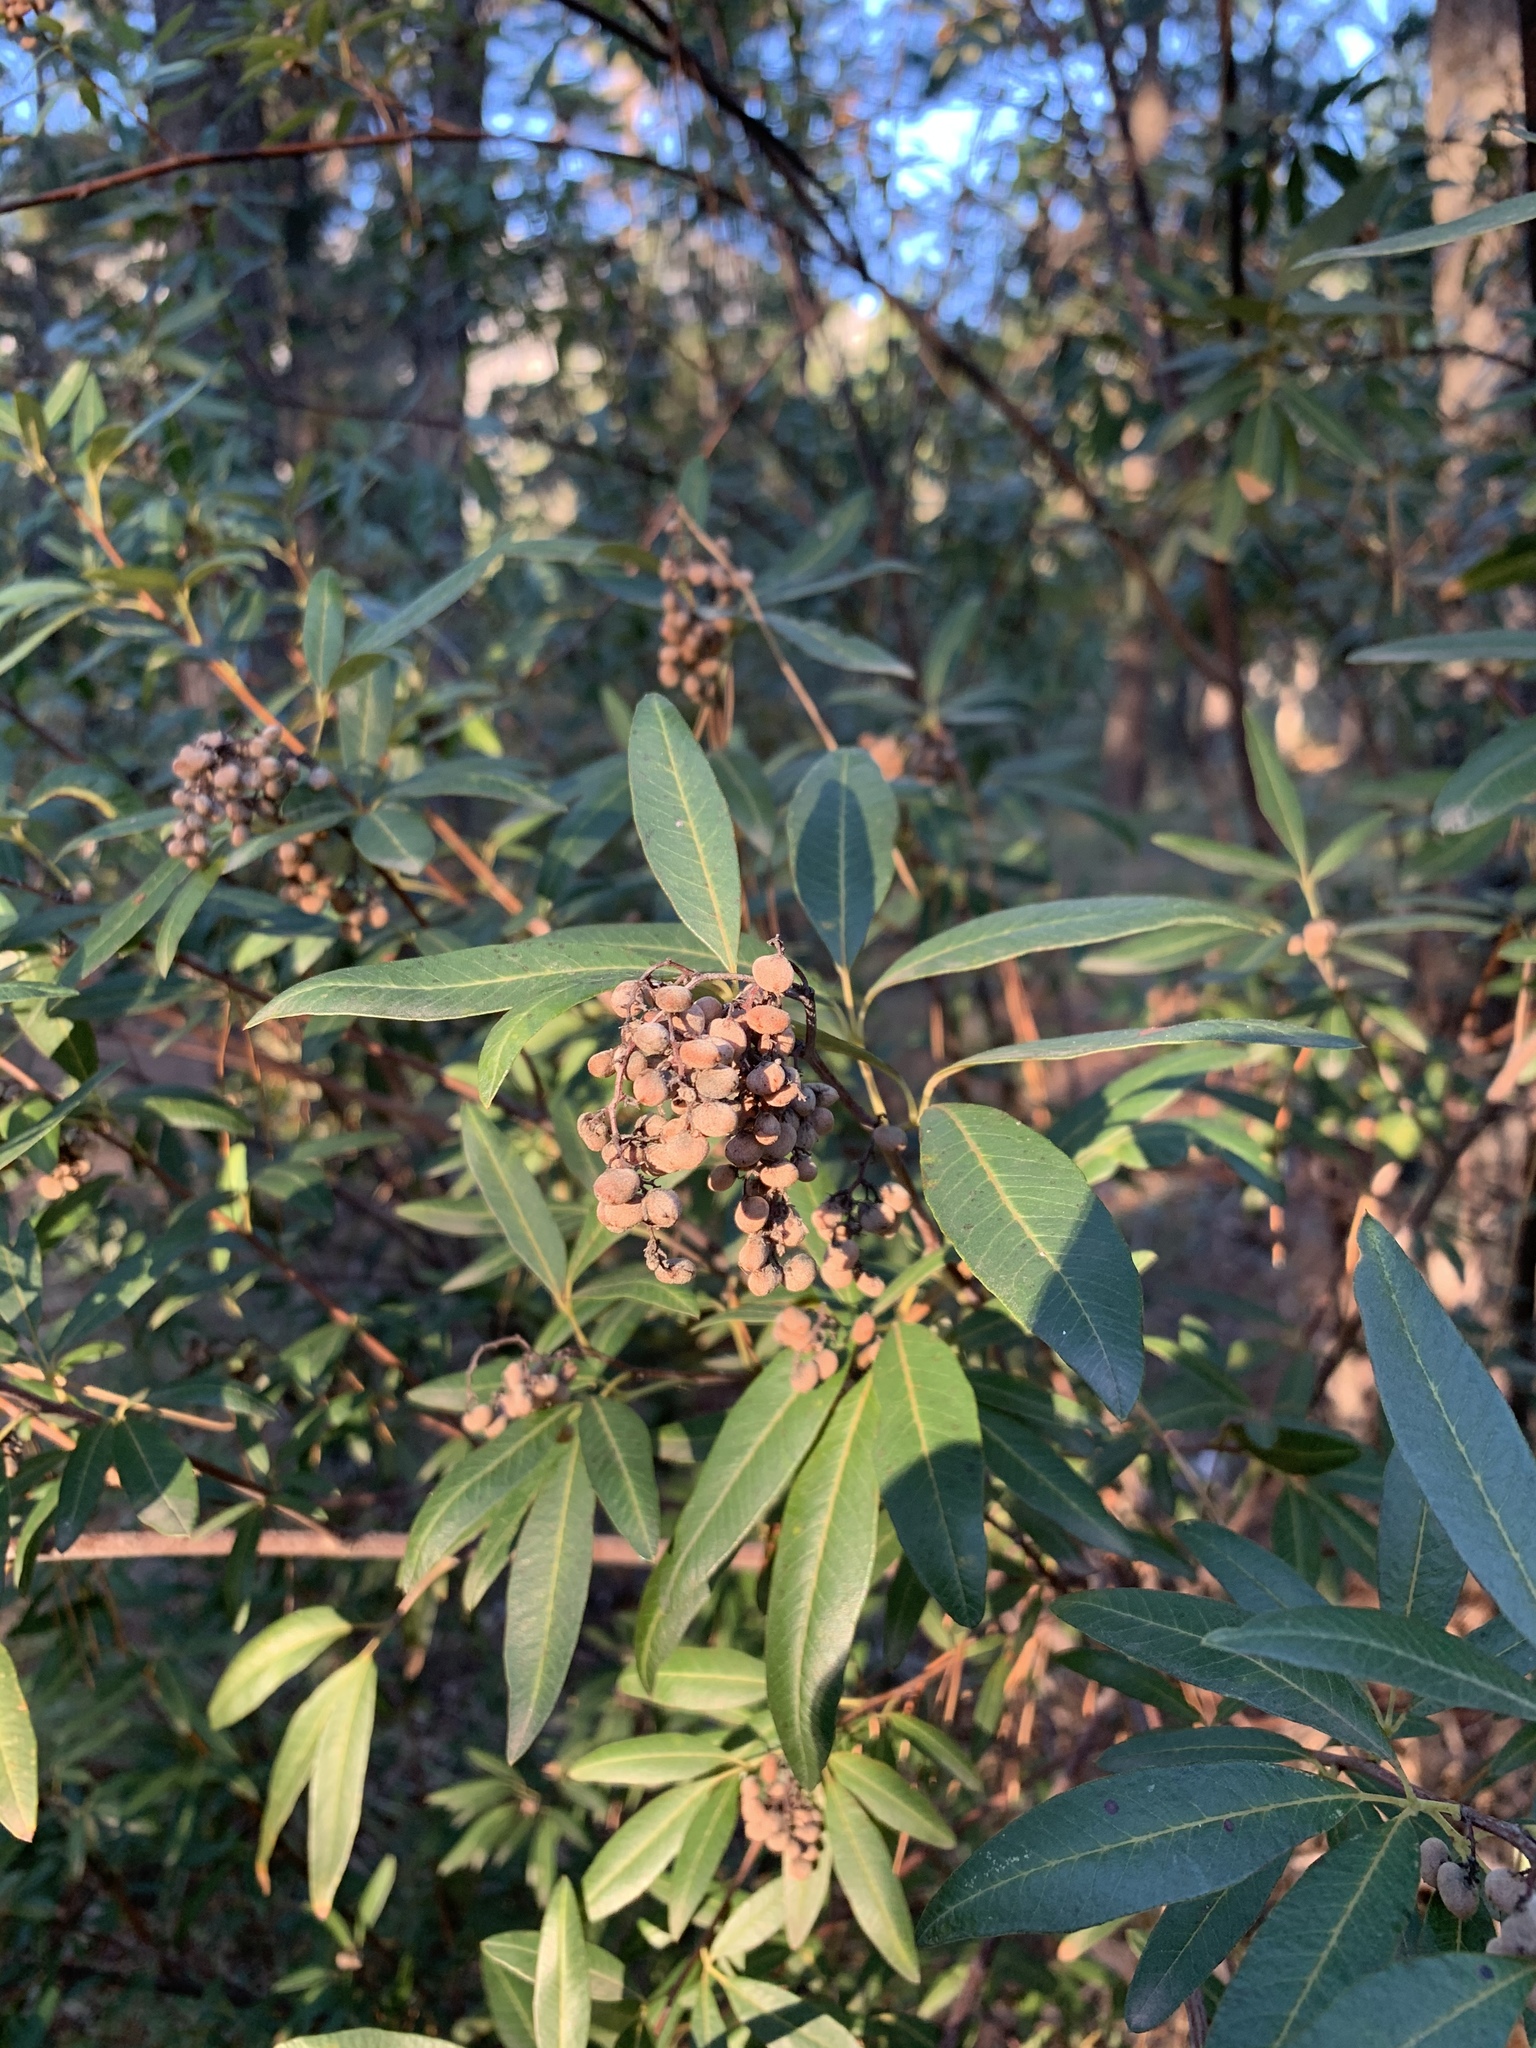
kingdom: Plantae
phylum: Tracheophyta
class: Magnoliopsida
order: Sapindales
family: Anacardiaceae
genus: Searsia
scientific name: Searsia angustifolia
